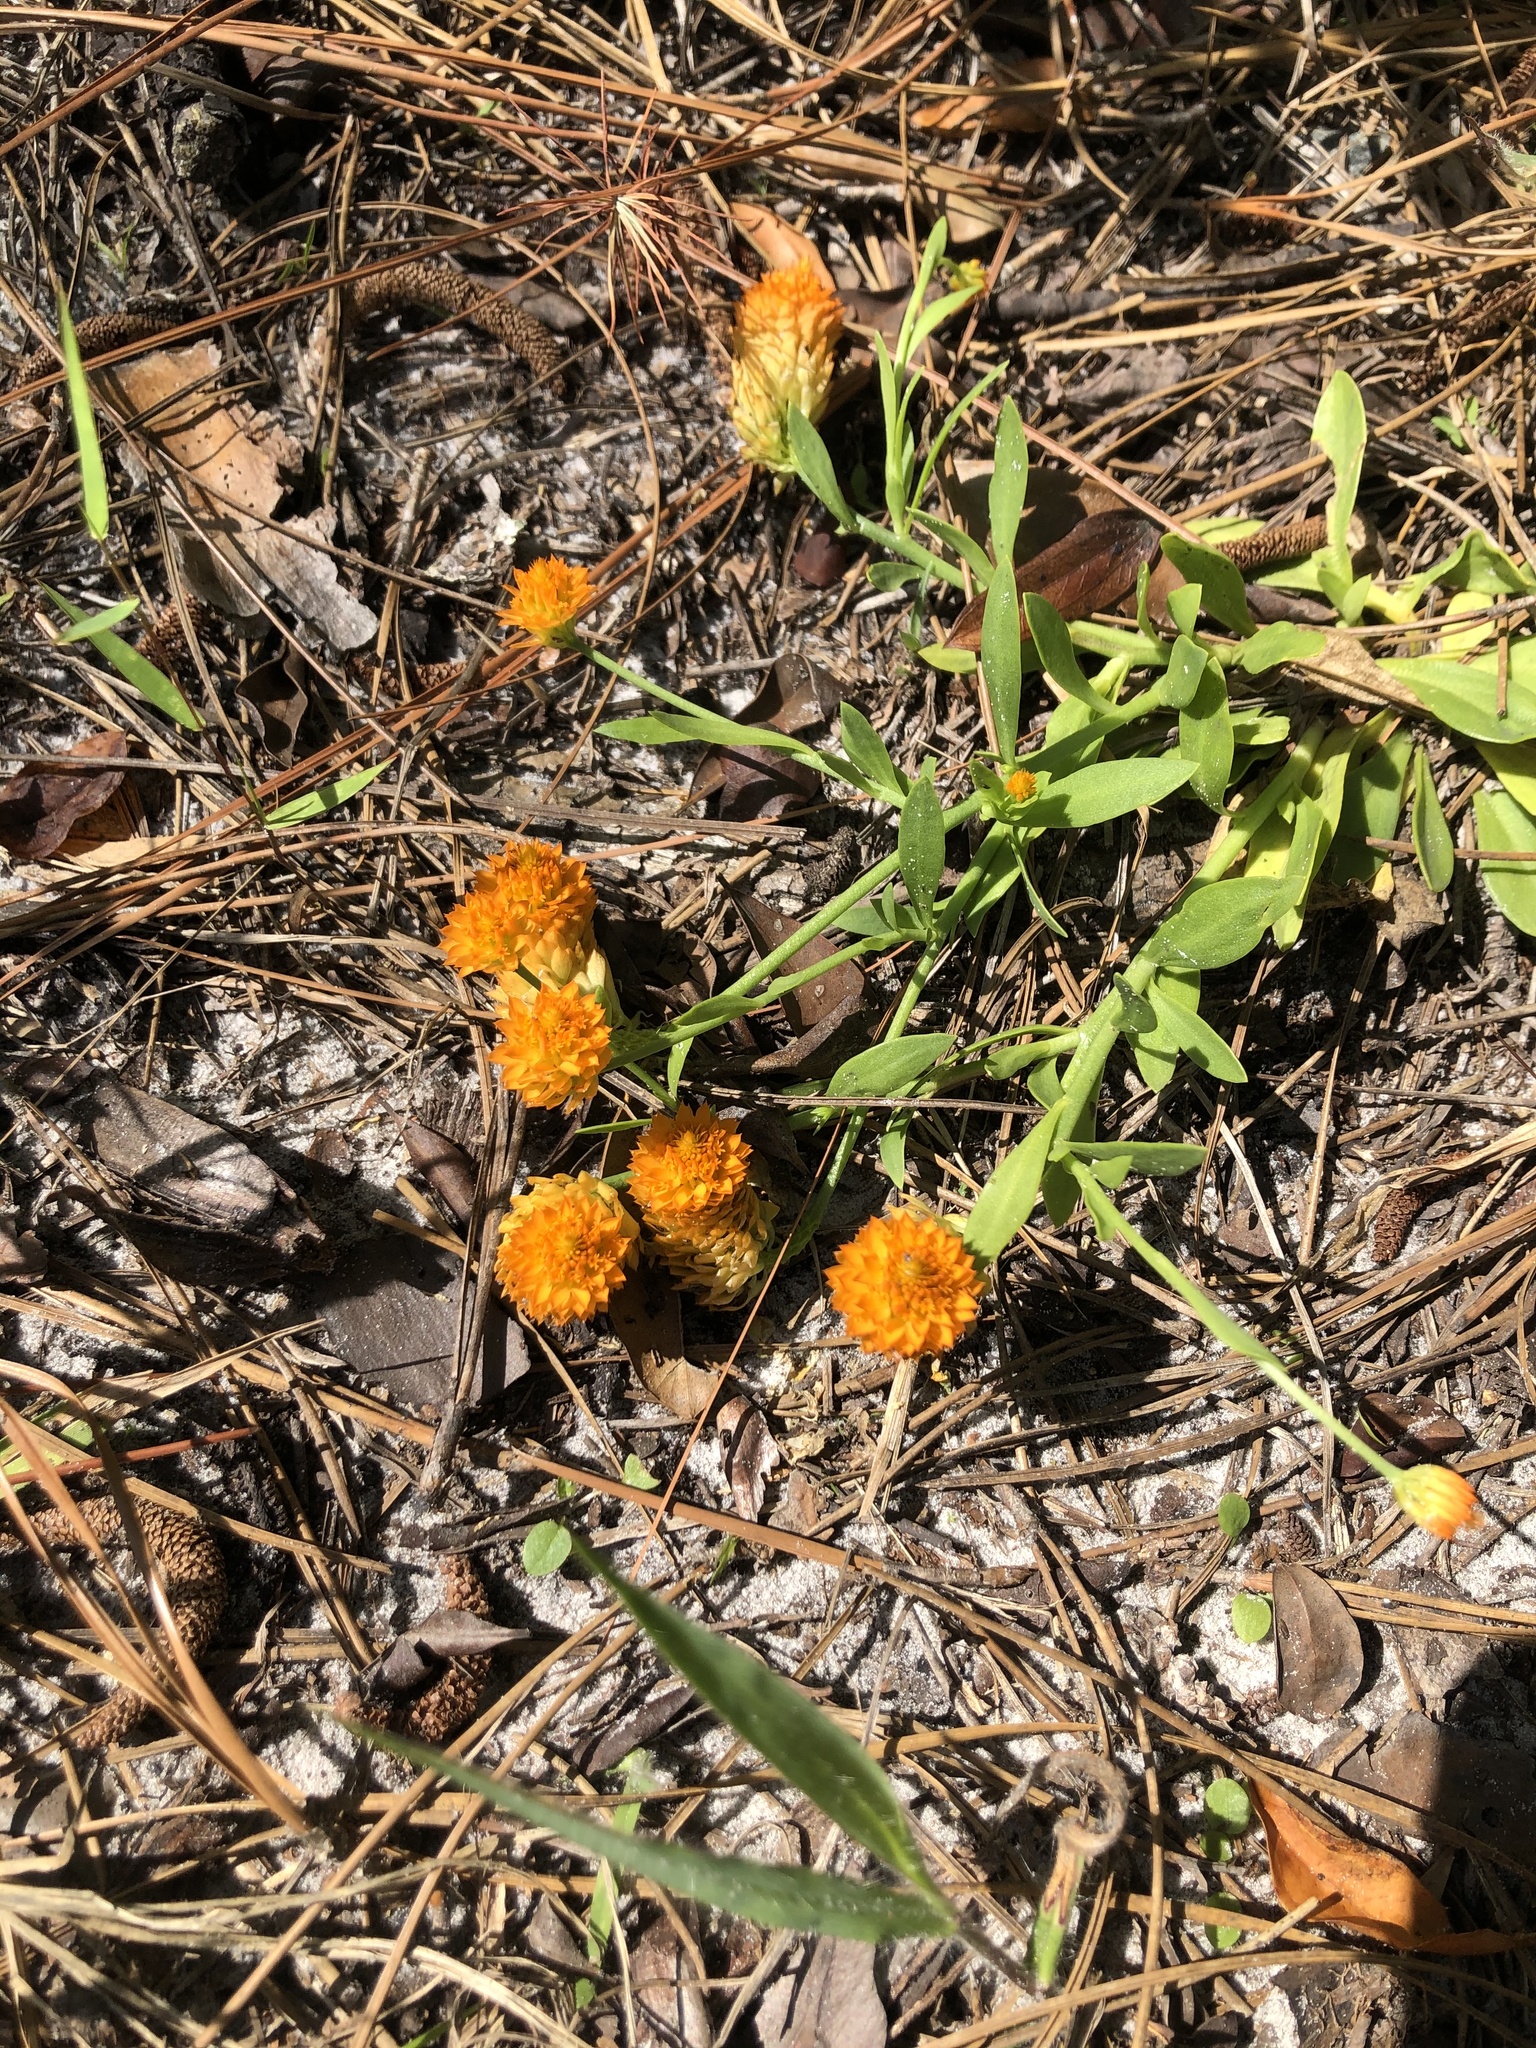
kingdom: Plantae
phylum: Tracheophyta
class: Magnoliopsida
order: Fabales
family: Polygalaceae
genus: Polygala
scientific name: Polygala lutea
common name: Orange milkwort
